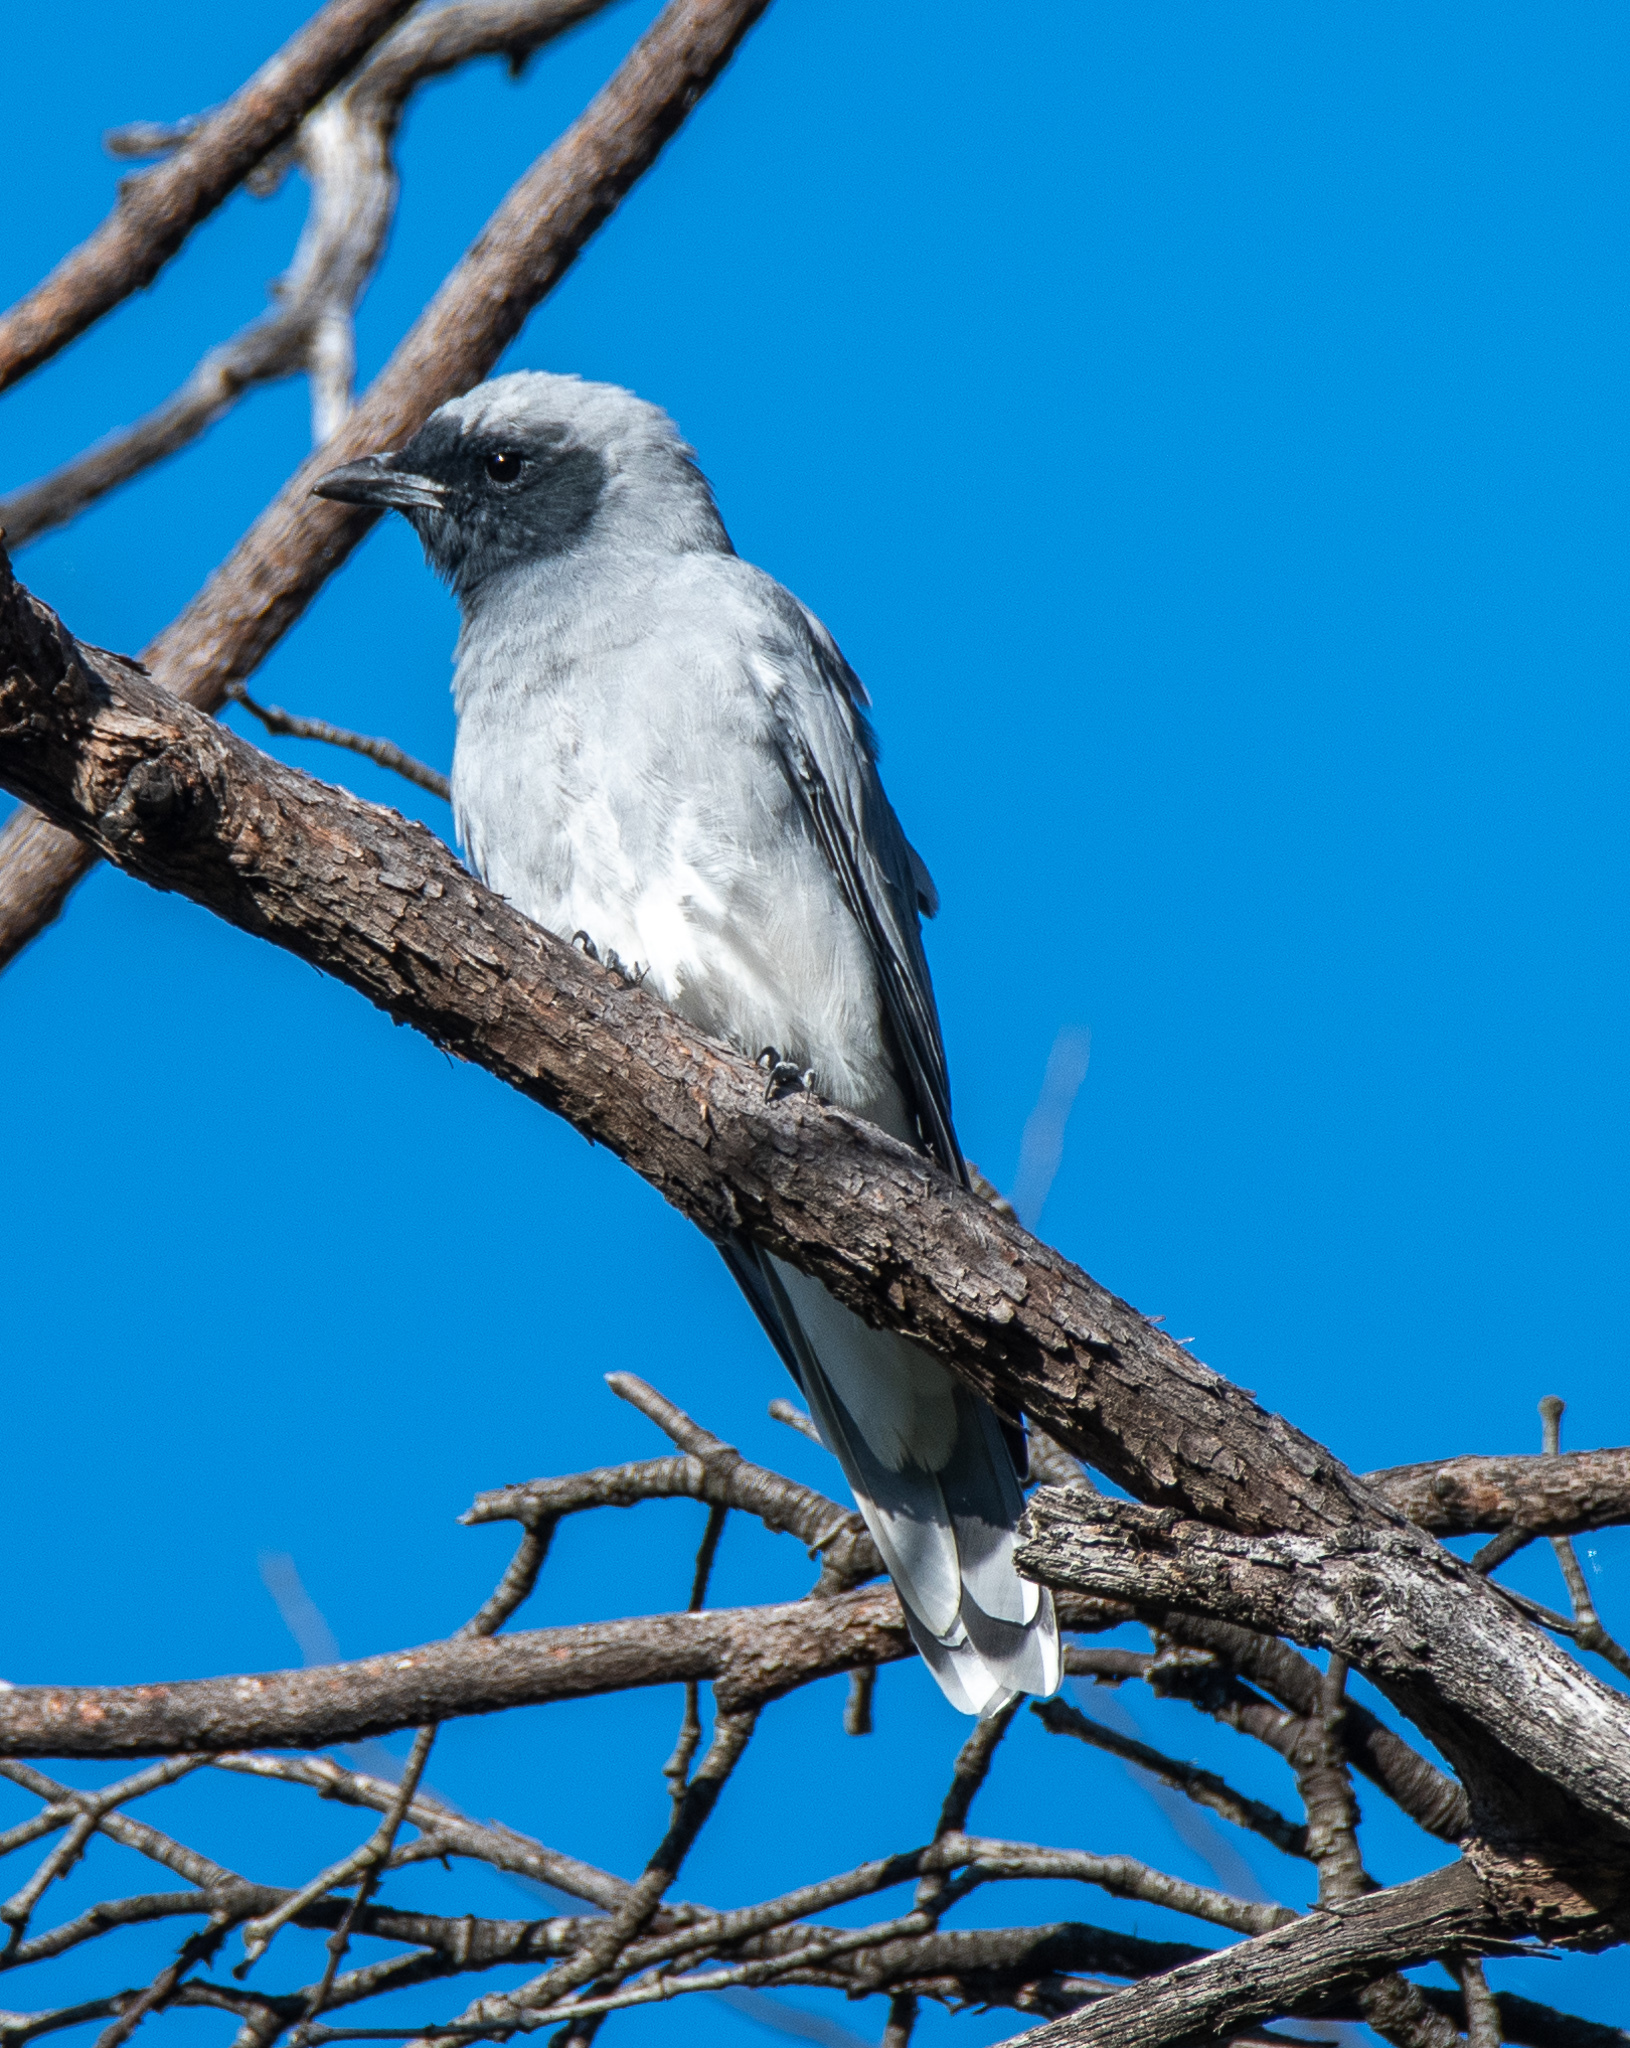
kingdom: Animalia
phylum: Chordata
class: Aves
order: Passeriformes
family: Campephagidae
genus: Coracina
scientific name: Coracina novaehollandiae
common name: Black-faced cuckooshrike
